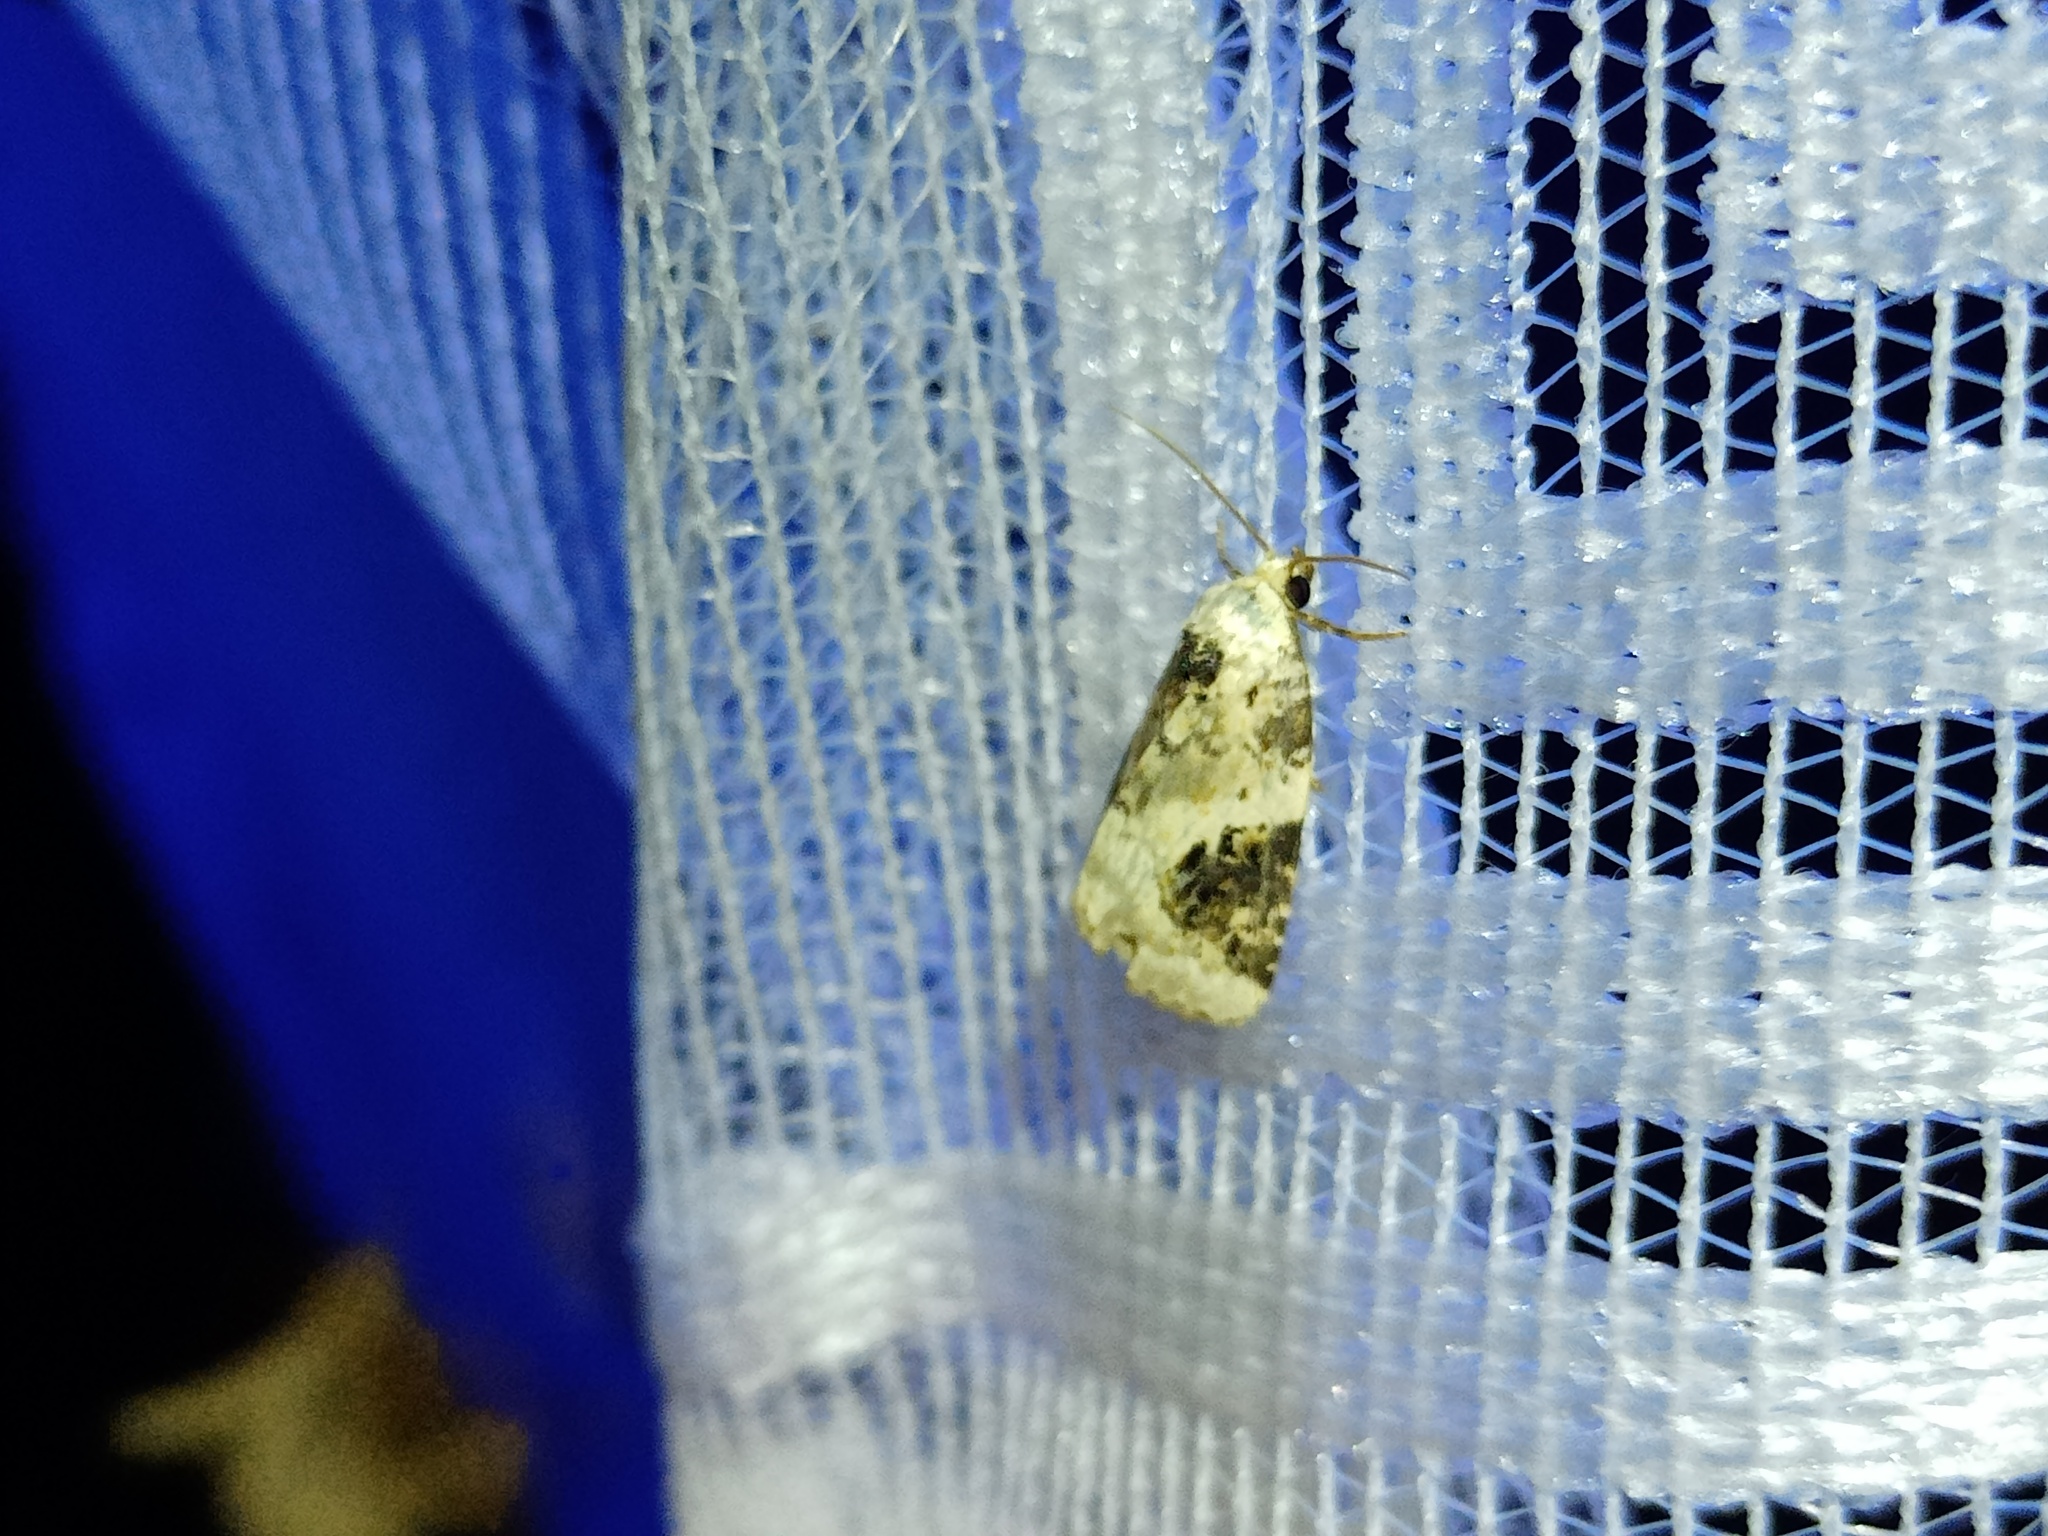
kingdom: Animalia
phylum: Arthropoda
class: Insecta
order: Lepidoptera
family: Noctuidae
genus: Pseudeustrotia
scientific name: Pseudeustrotia candidula
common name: Shining marbled
